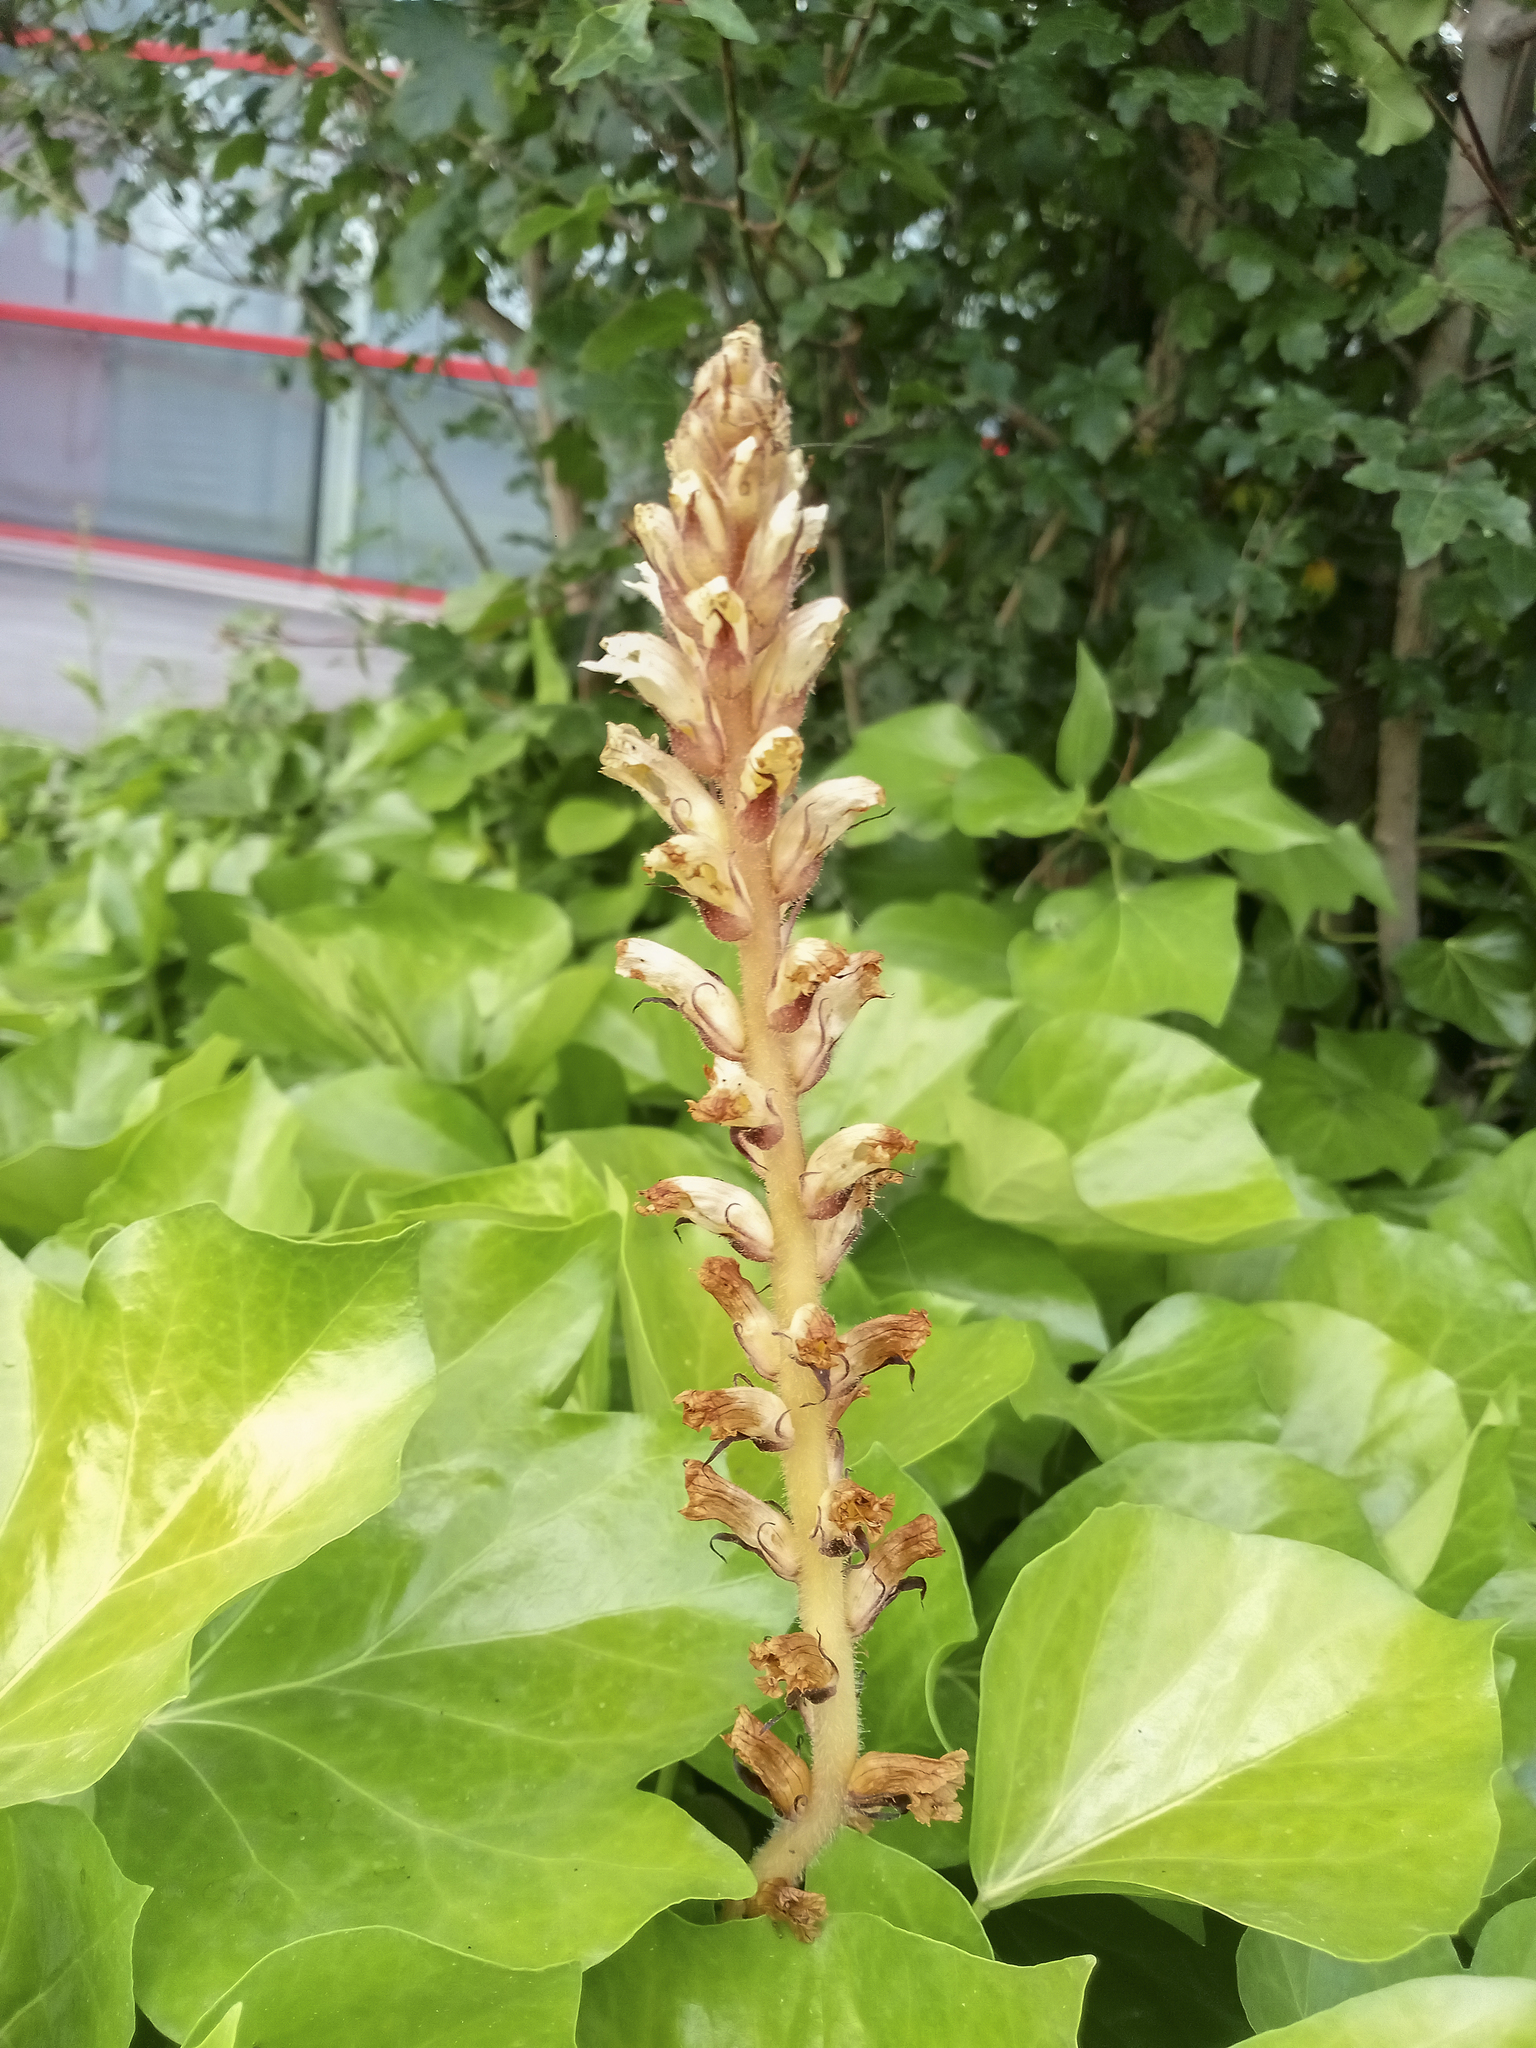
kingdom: Plantae
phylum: Tracheophyta
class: Magnoliopsida
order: Lamiales
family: Orobanchaceae
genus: Orobanche
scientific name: Orobanche hederae
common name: Ivy broomrape
